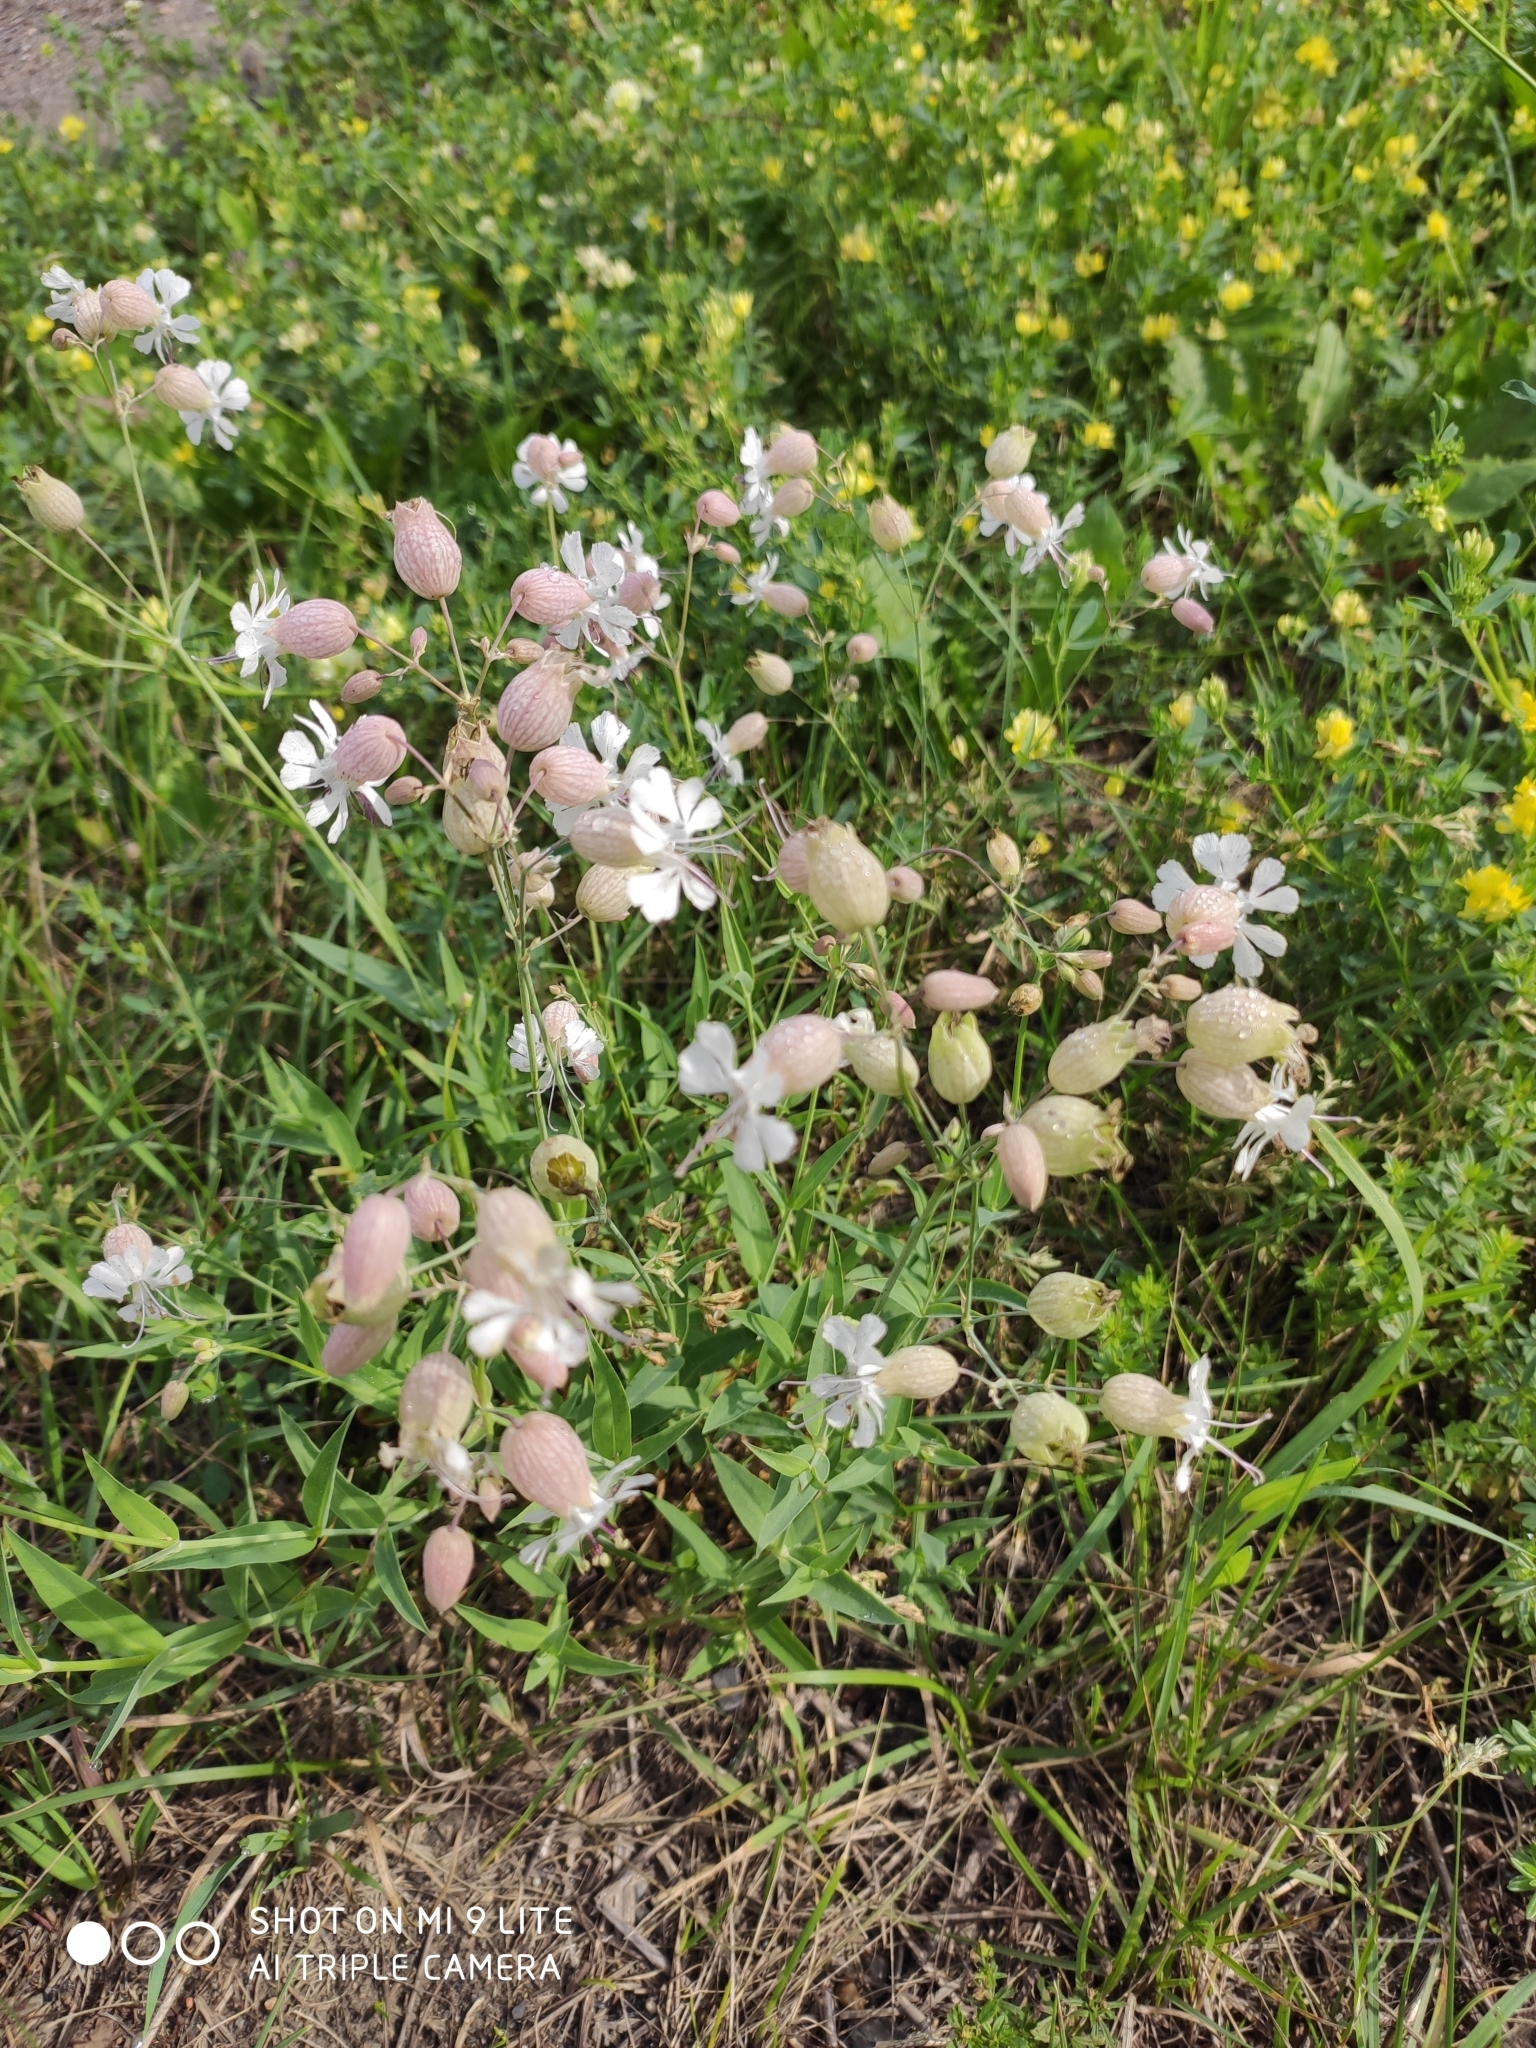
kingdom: Plantae
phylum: Tracheophyta
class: Magnoliopsida
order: Caryophyllales
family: Caryophyllaceae
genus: Silene
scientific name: Silene vulgaris
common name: Bladder campion
